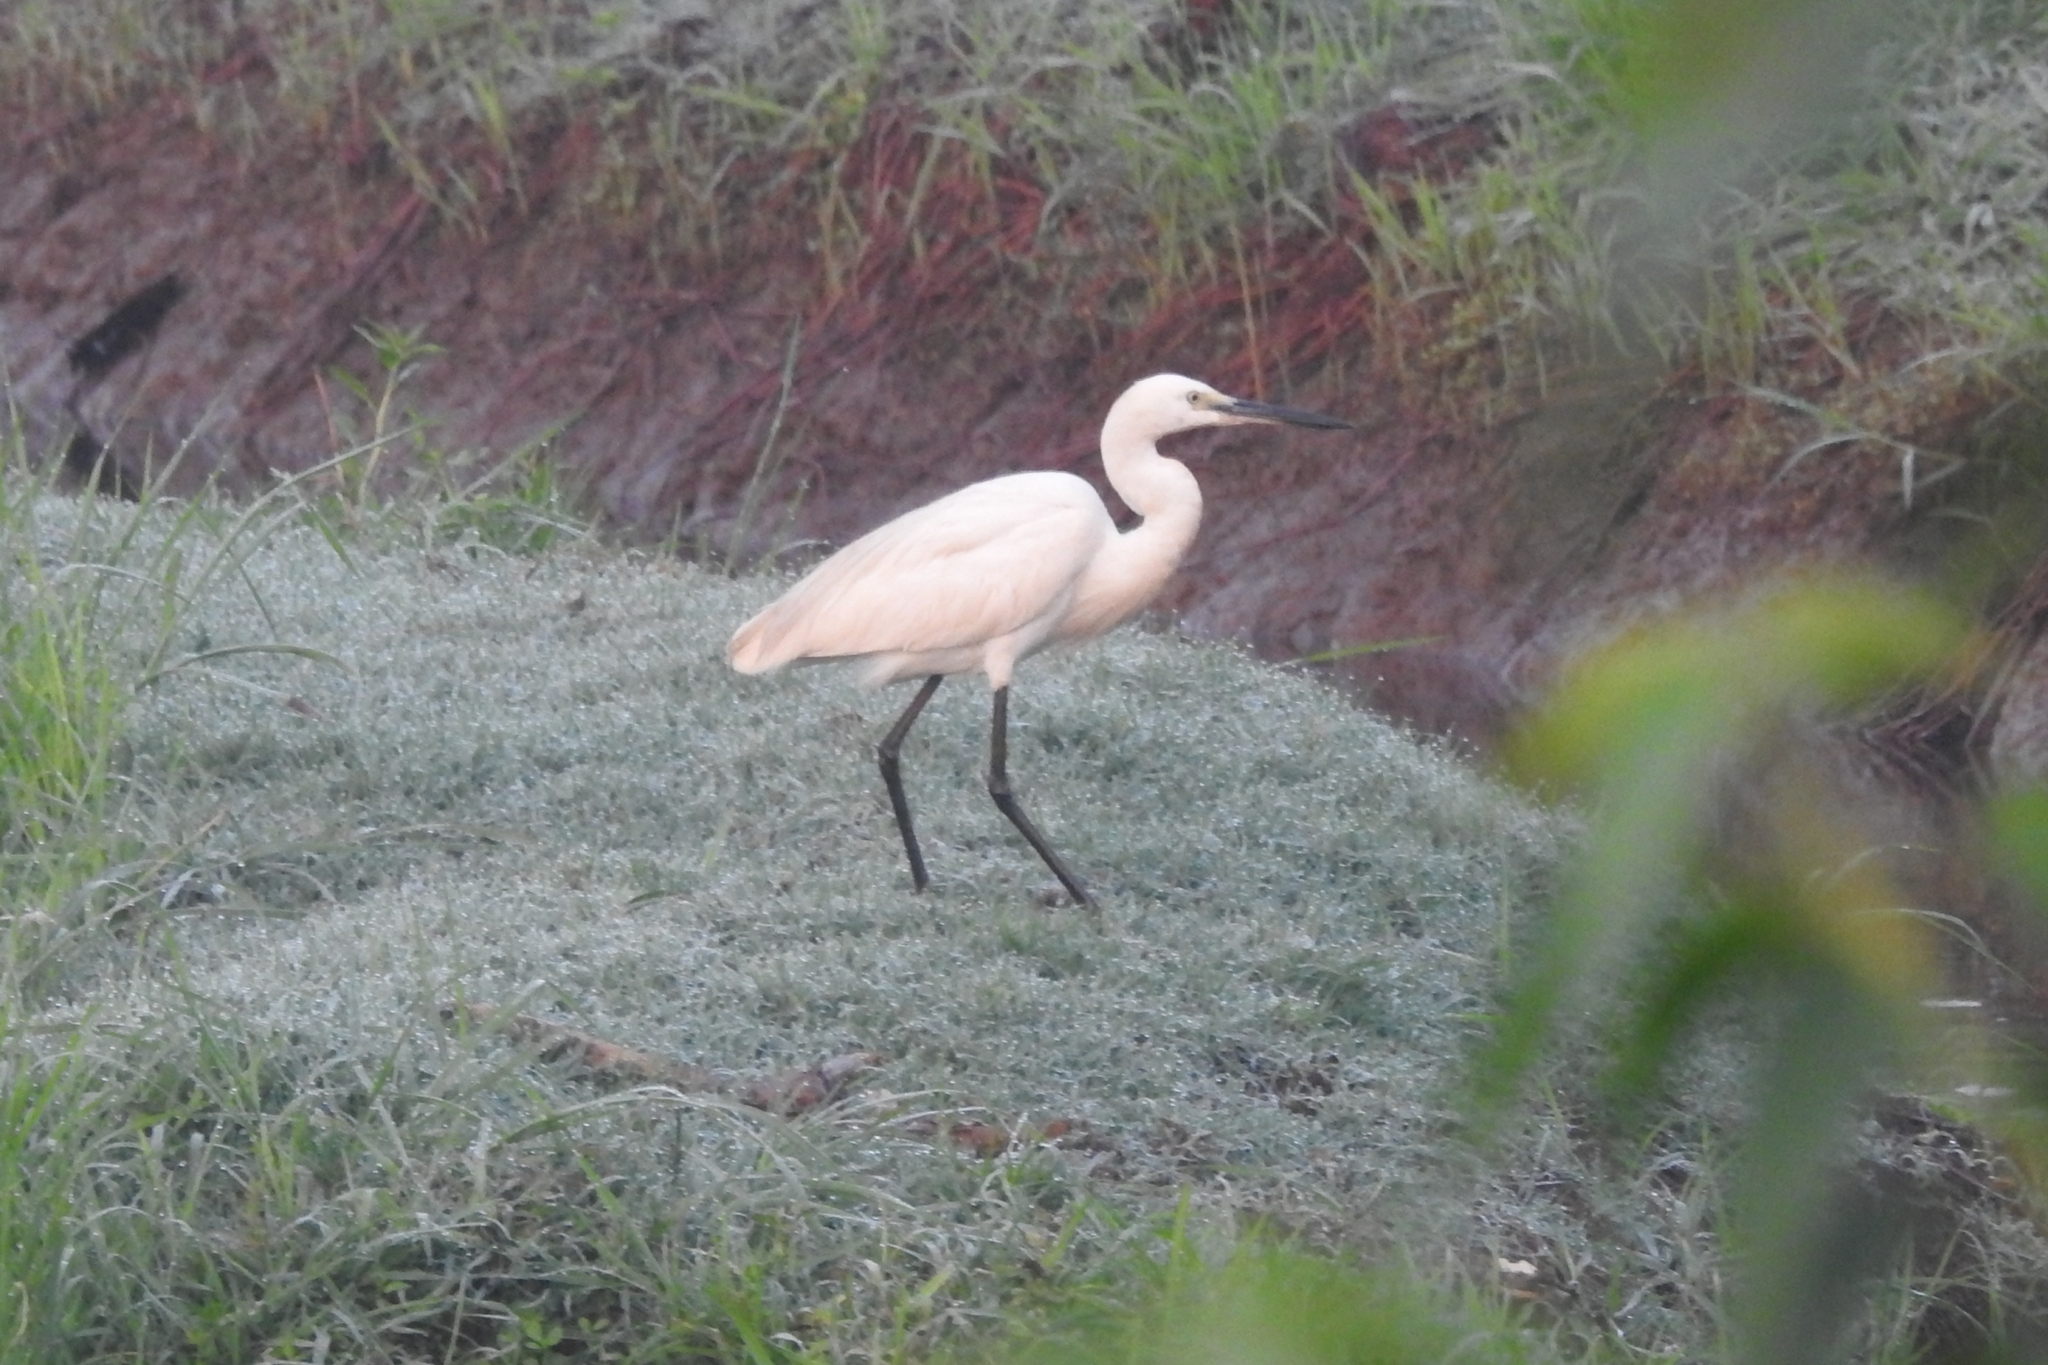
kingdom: Animalia
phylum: Chordata
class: Aves
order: Pelecaniformes
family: Ardeidae
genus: Egretta
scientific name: Egretta garzetta
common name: Little egret
